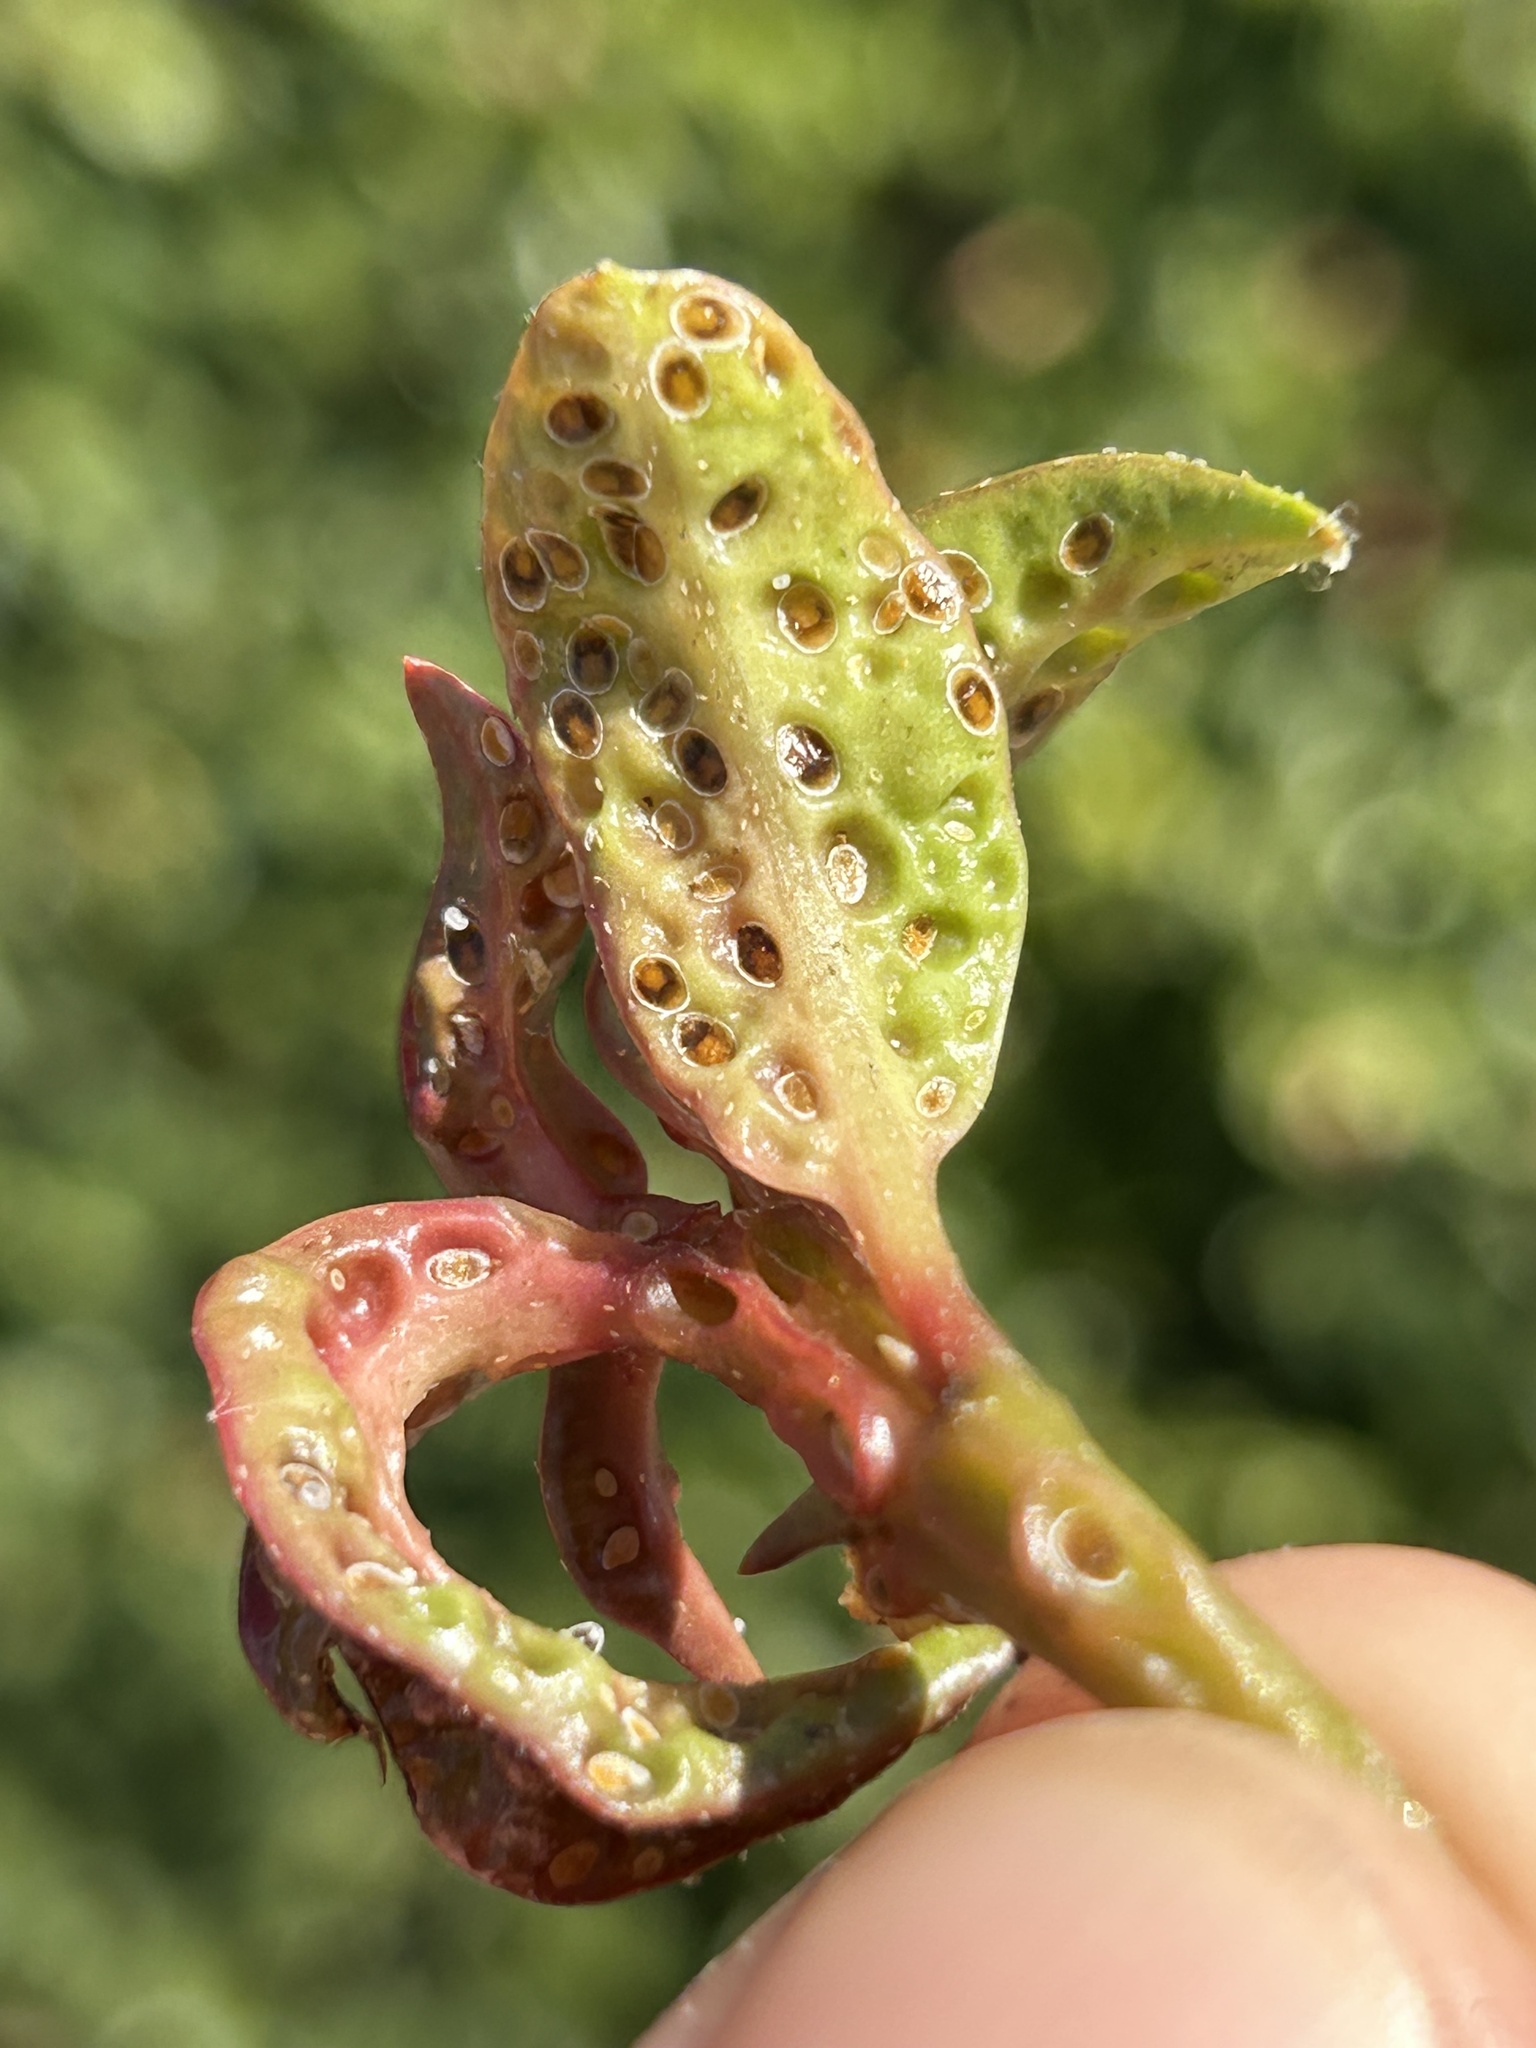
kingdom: Animalia
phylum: Arthropoda
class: Insecta
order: Hemiptera
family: Triozidae
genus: Trioza
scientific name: Trioza adventicia
